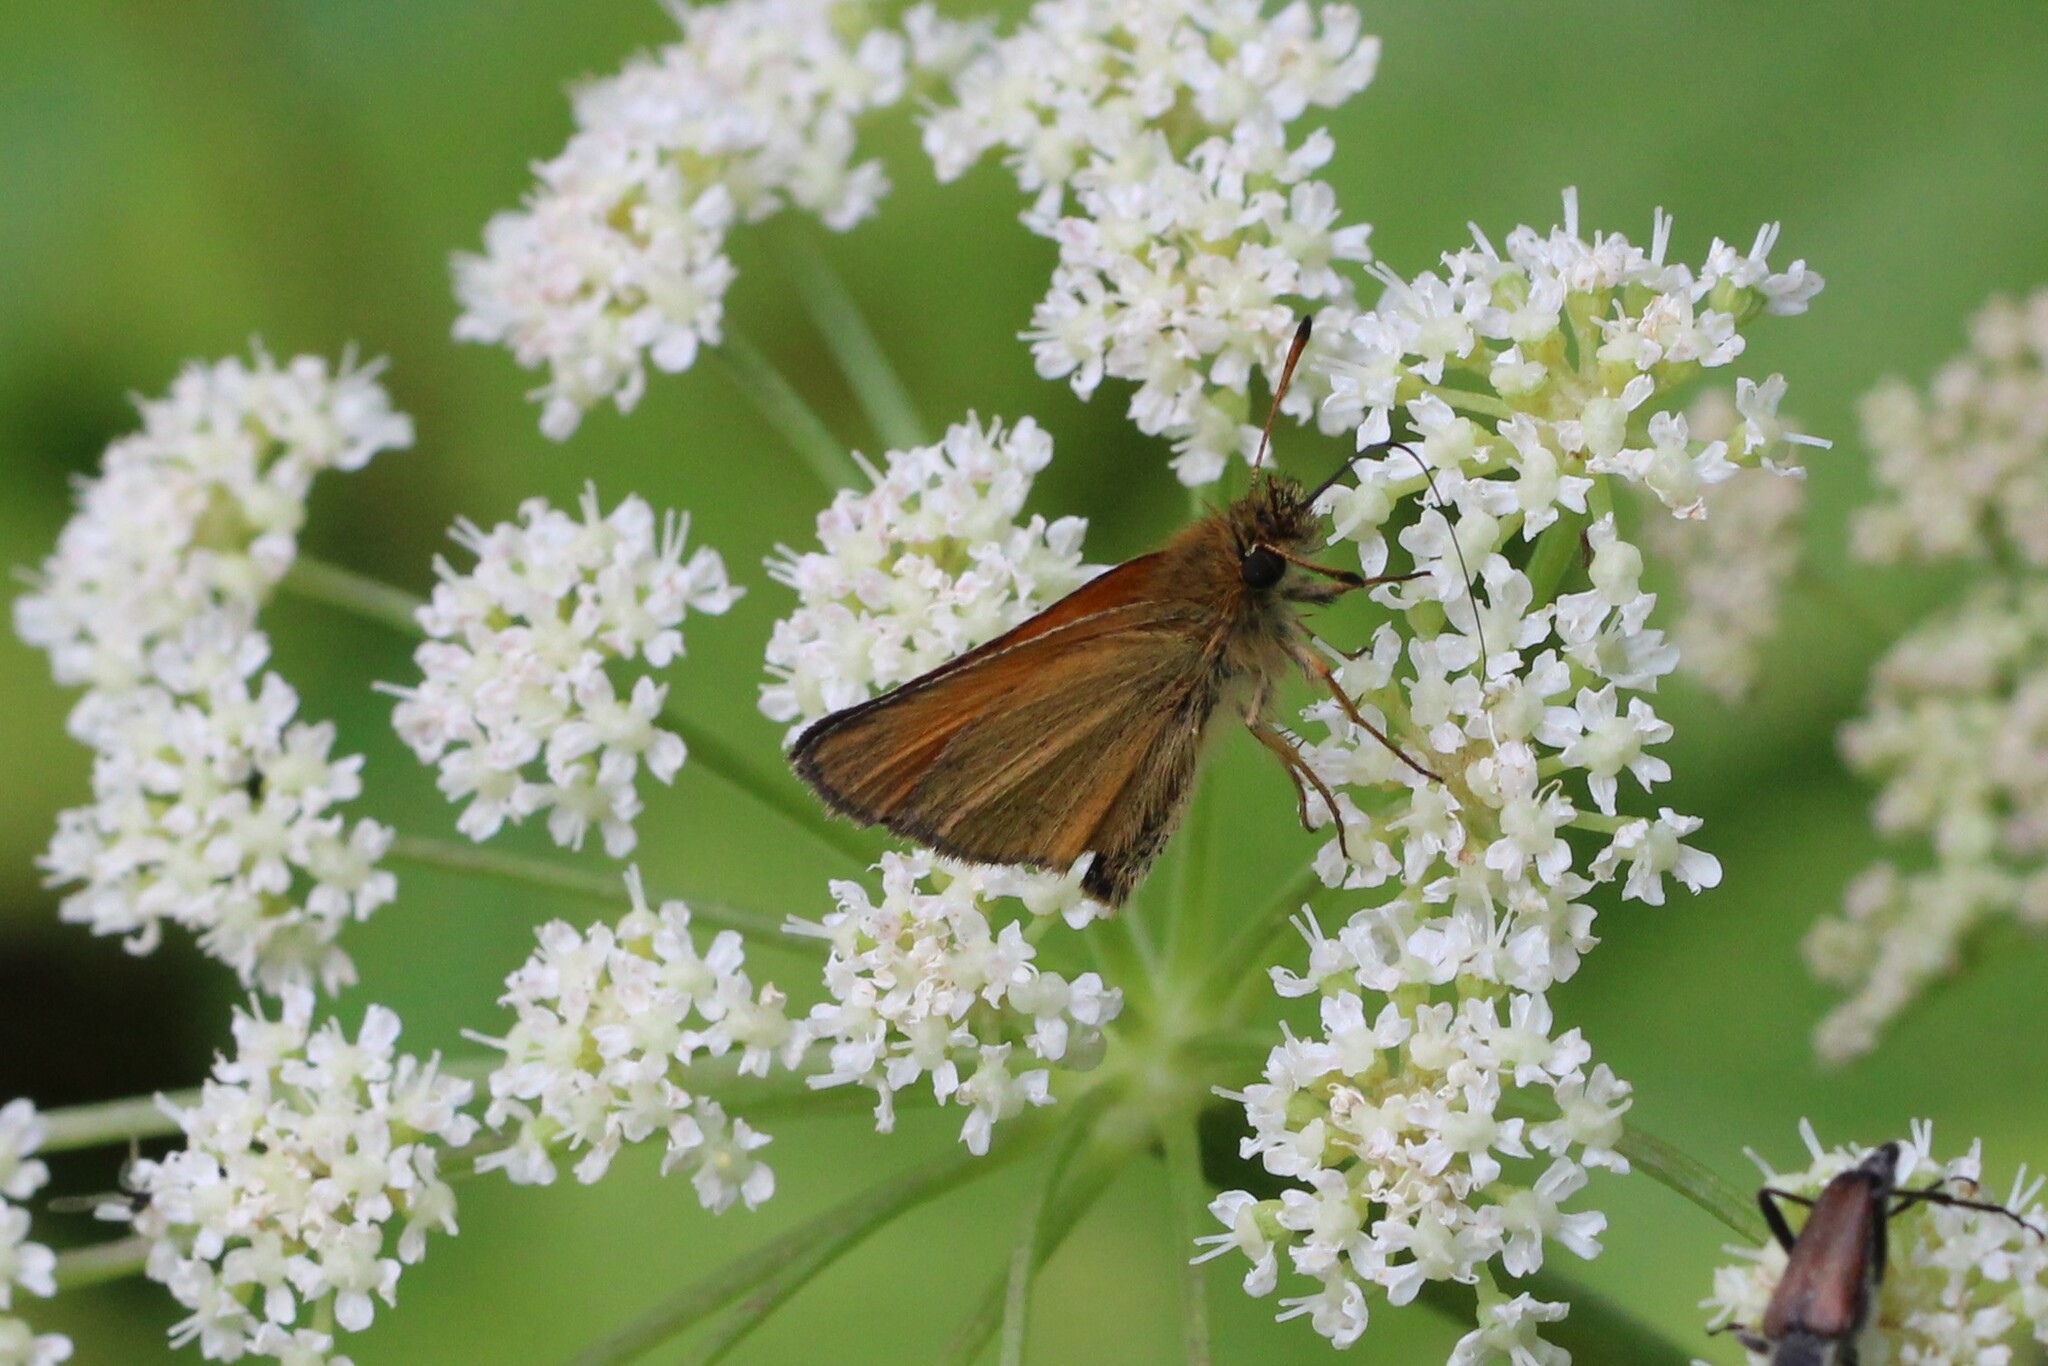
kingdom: Animalia
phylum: Arthropoda
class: Insecta
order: Lepidoptera
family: Hesperiidae
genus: Thymelicus
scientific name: Thymelicus lineola
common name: Essex skipper
